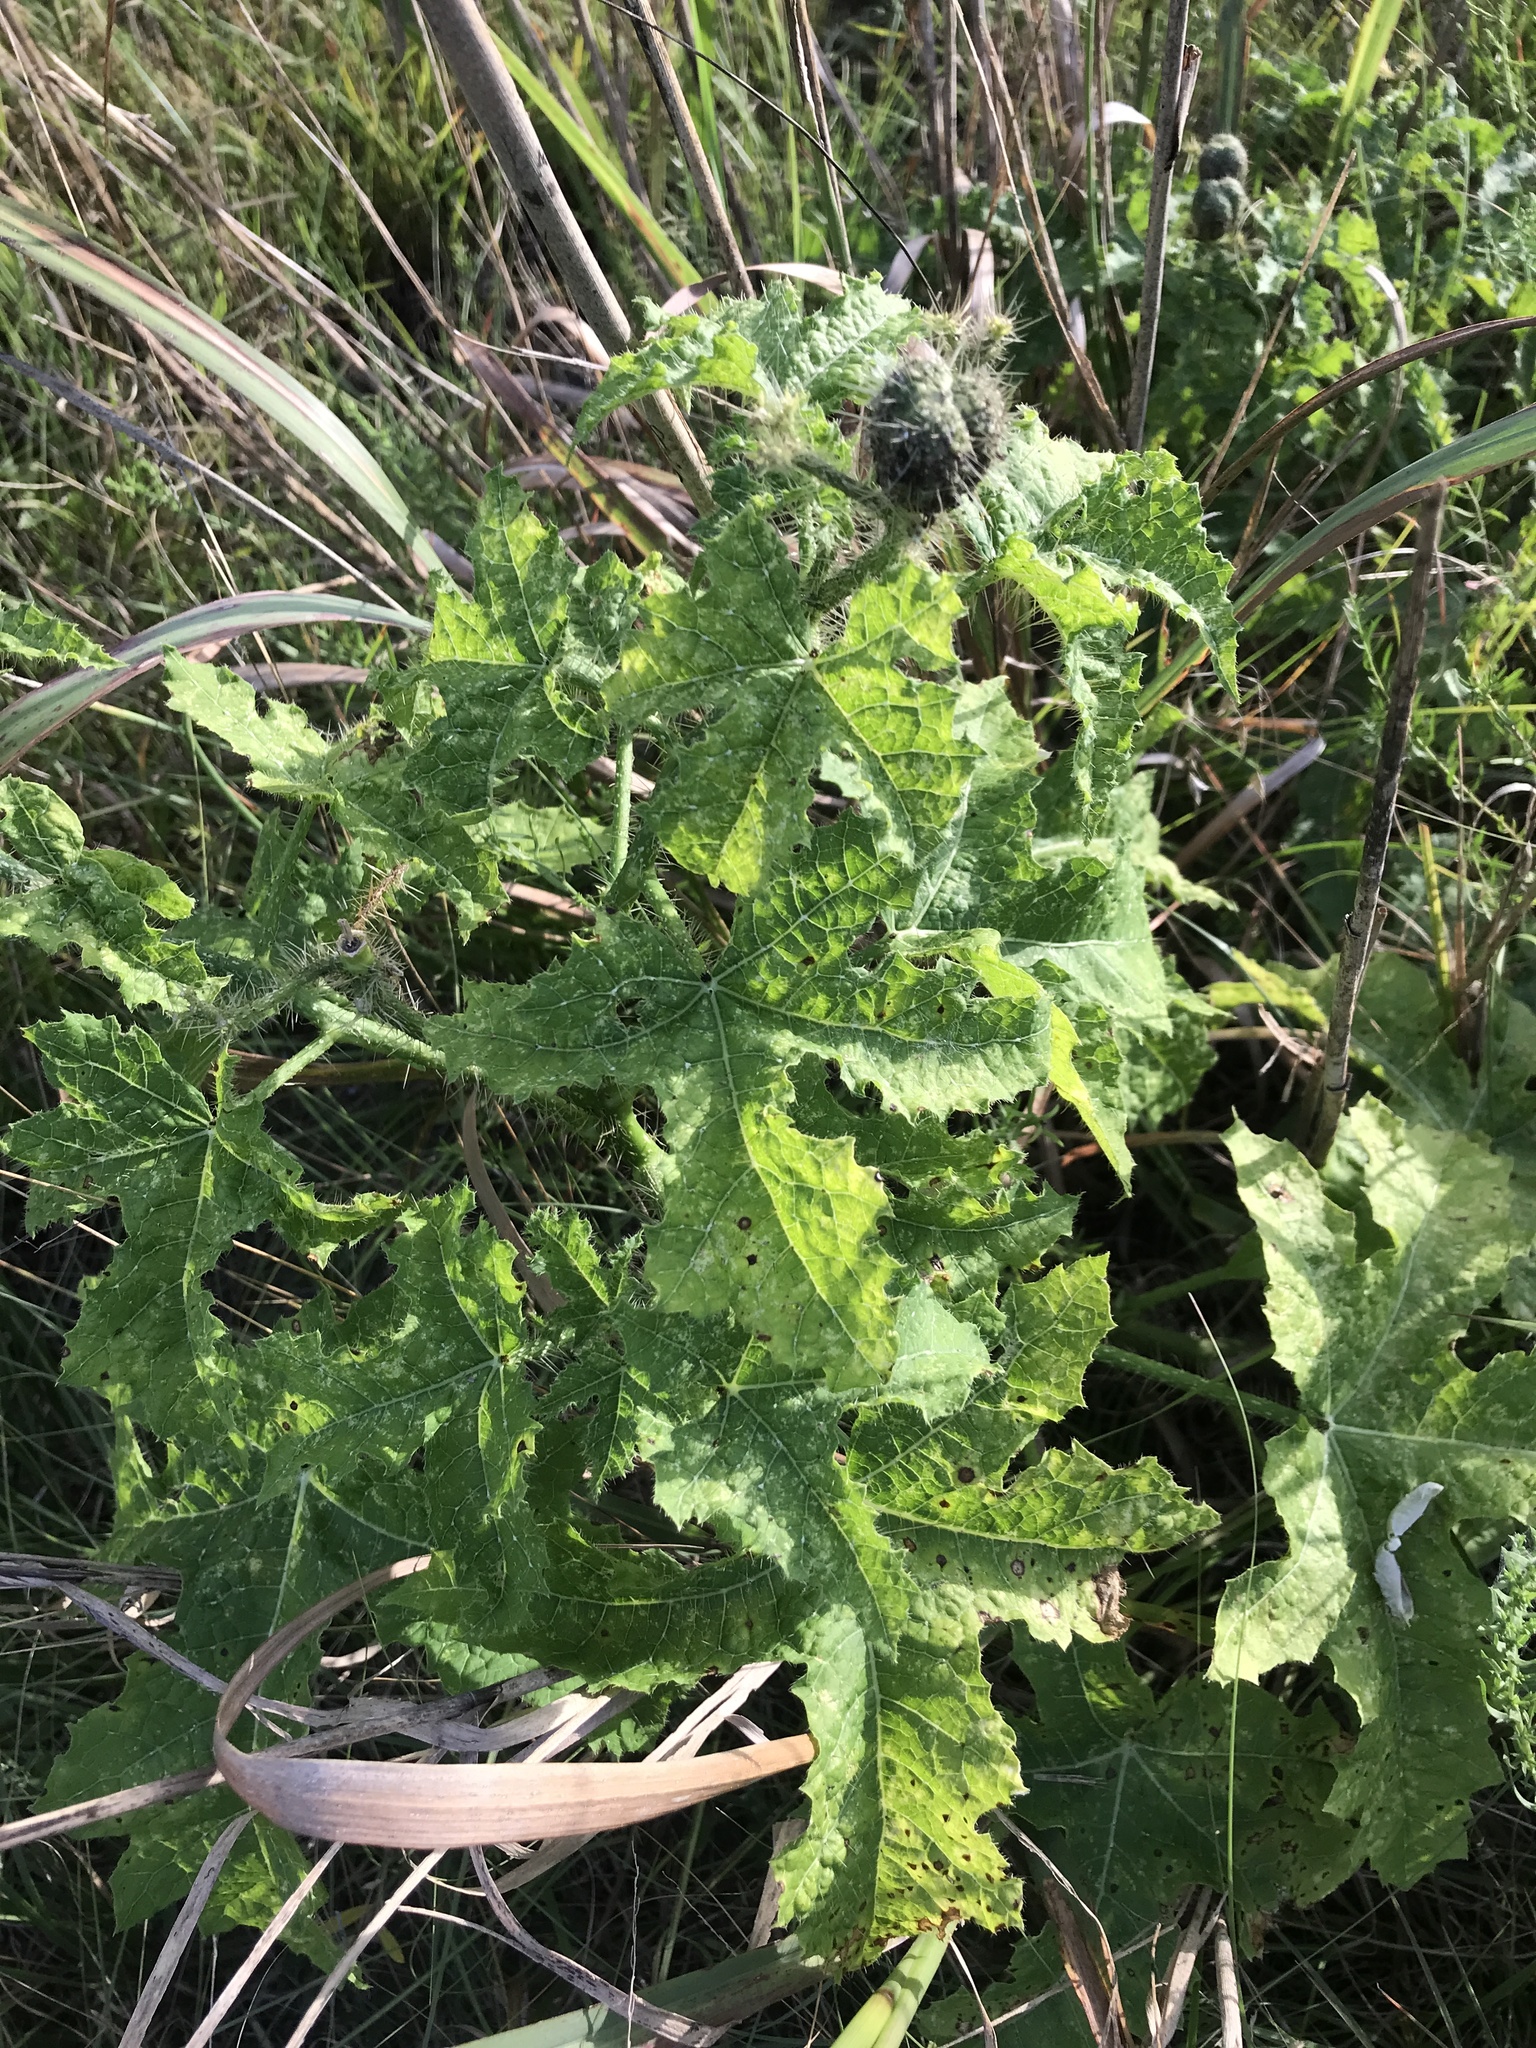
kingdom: Plantae
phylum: Tracheophyta
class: Magnoliopsida
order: Malpighiales
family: Euphorbiaceae
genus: Cnidoscolus
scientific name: Cnidoscolus texanus
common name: Texas bull-nettle
